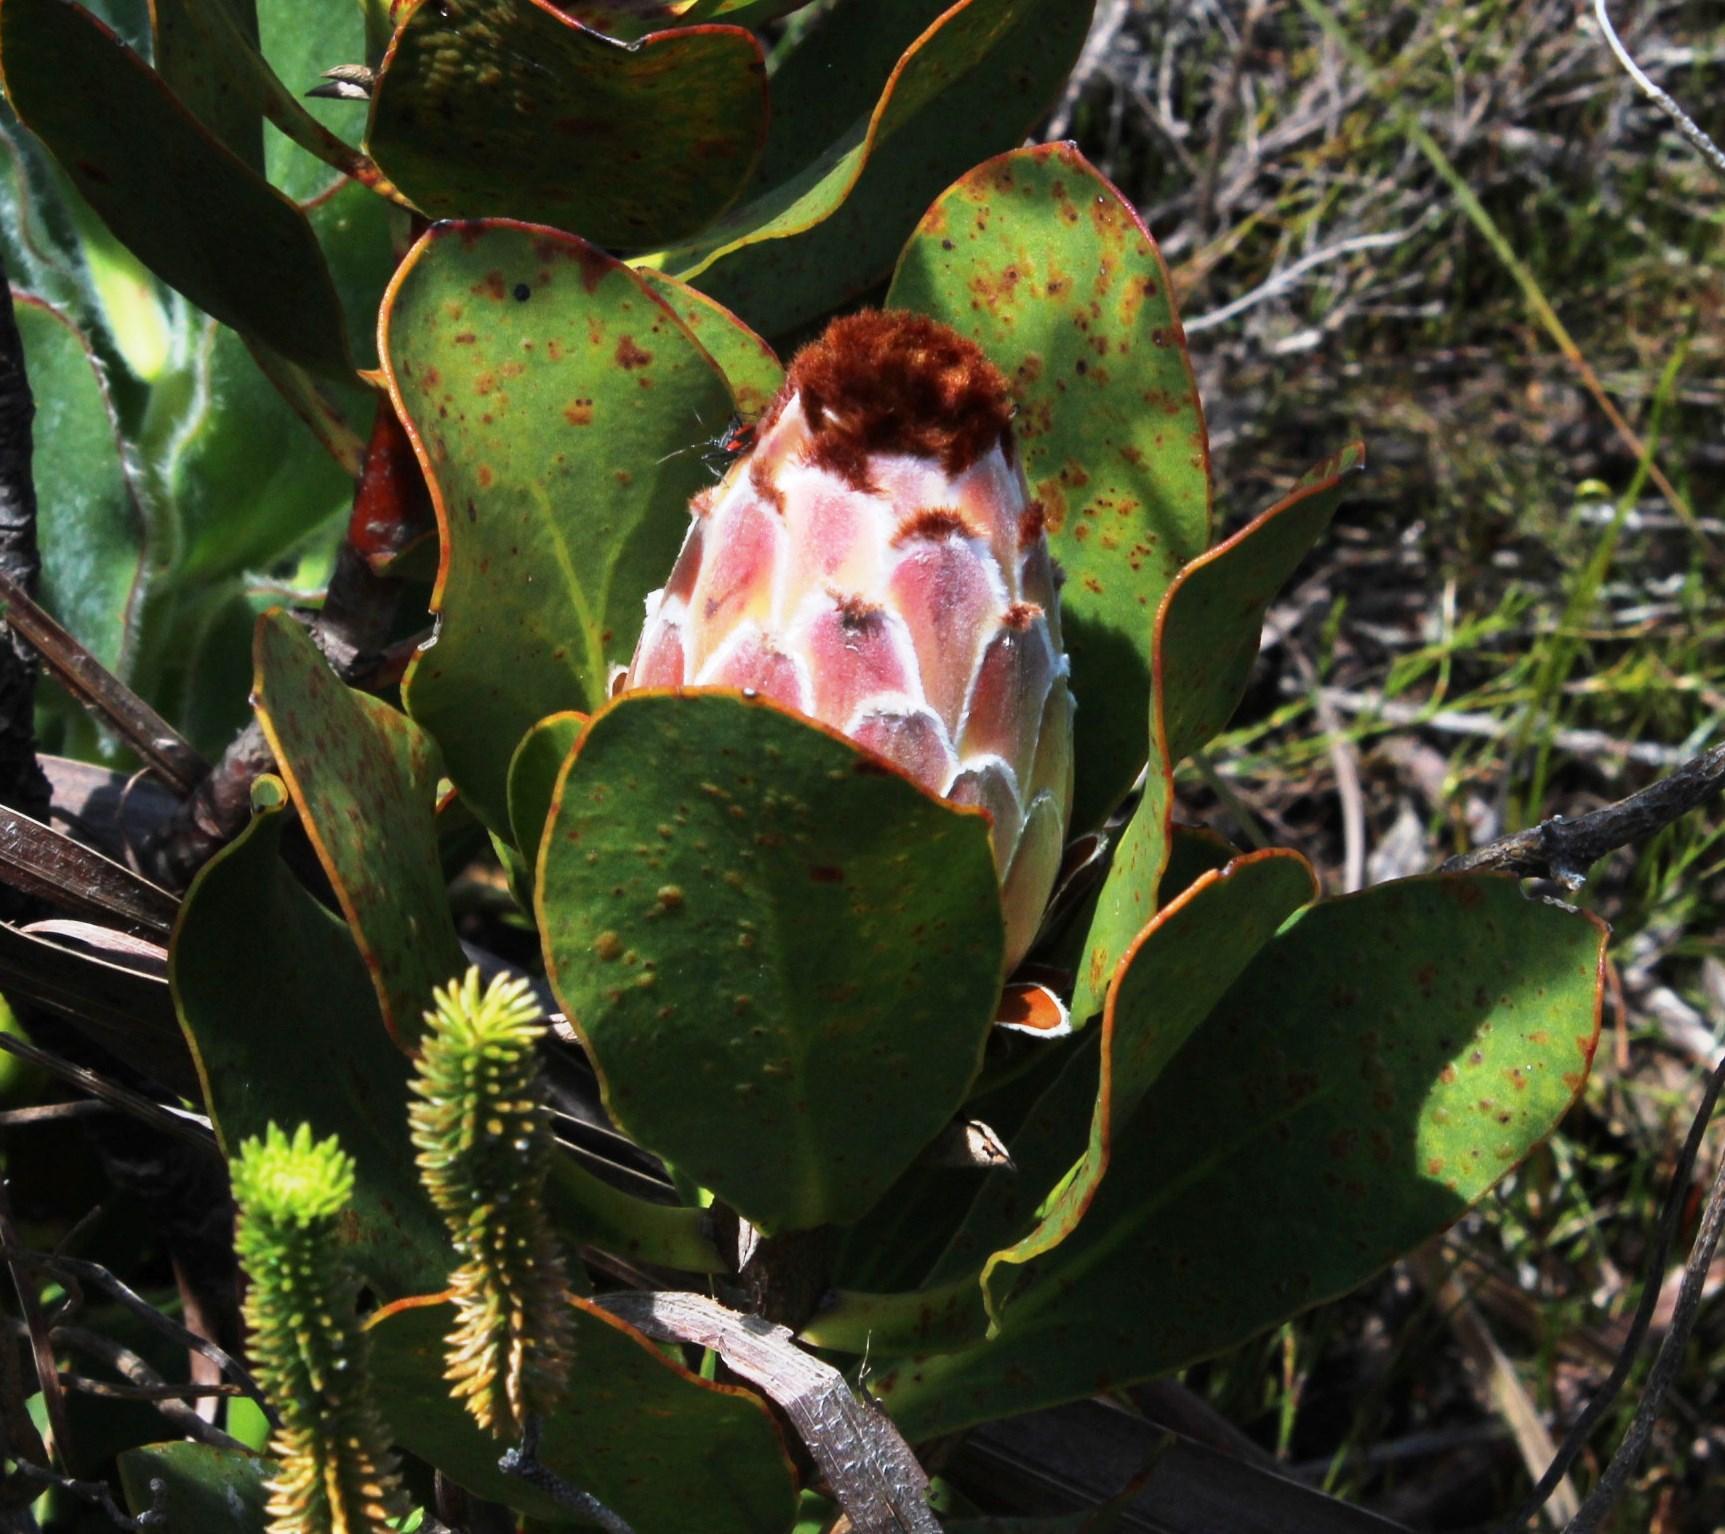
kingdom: Plantae
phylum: Tracheophyta
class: Magnoliopsida
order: Proteales
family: Proteaceae
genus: Protea
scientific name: Protea speciosa
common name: Brown-beard sugarbush
